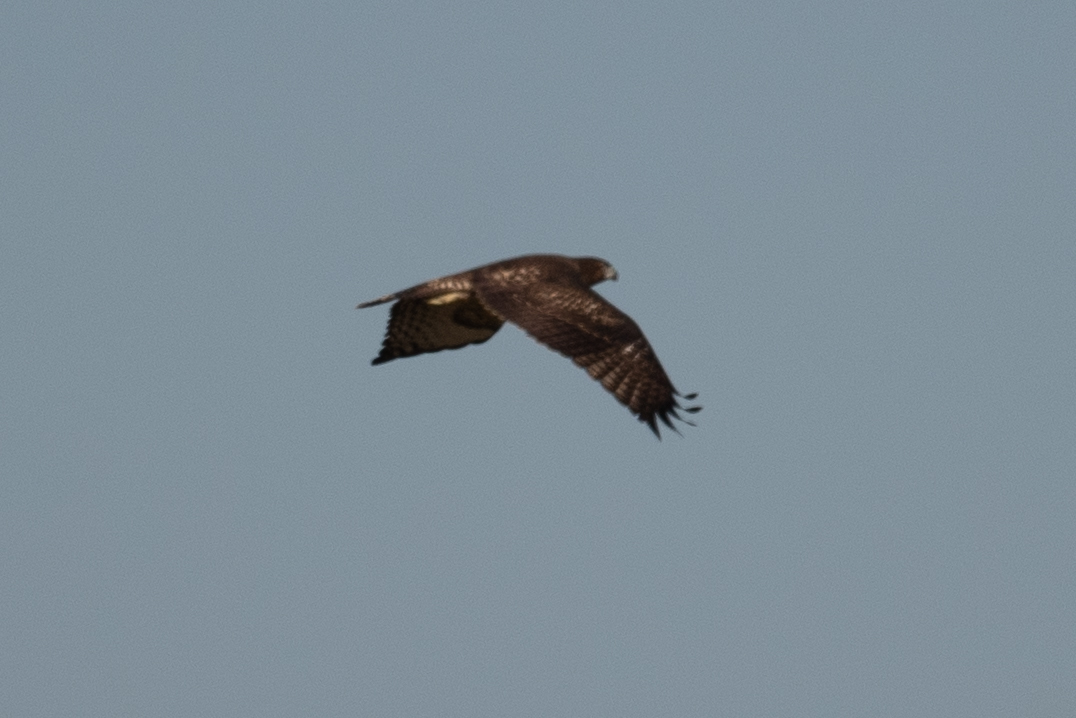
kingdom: Animalia
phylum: Chordata
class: Aves
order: Accipitriformes
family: Accipitridae
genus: Buteo
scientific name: Buteo jamaicensis
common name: Red-tailed hawk
